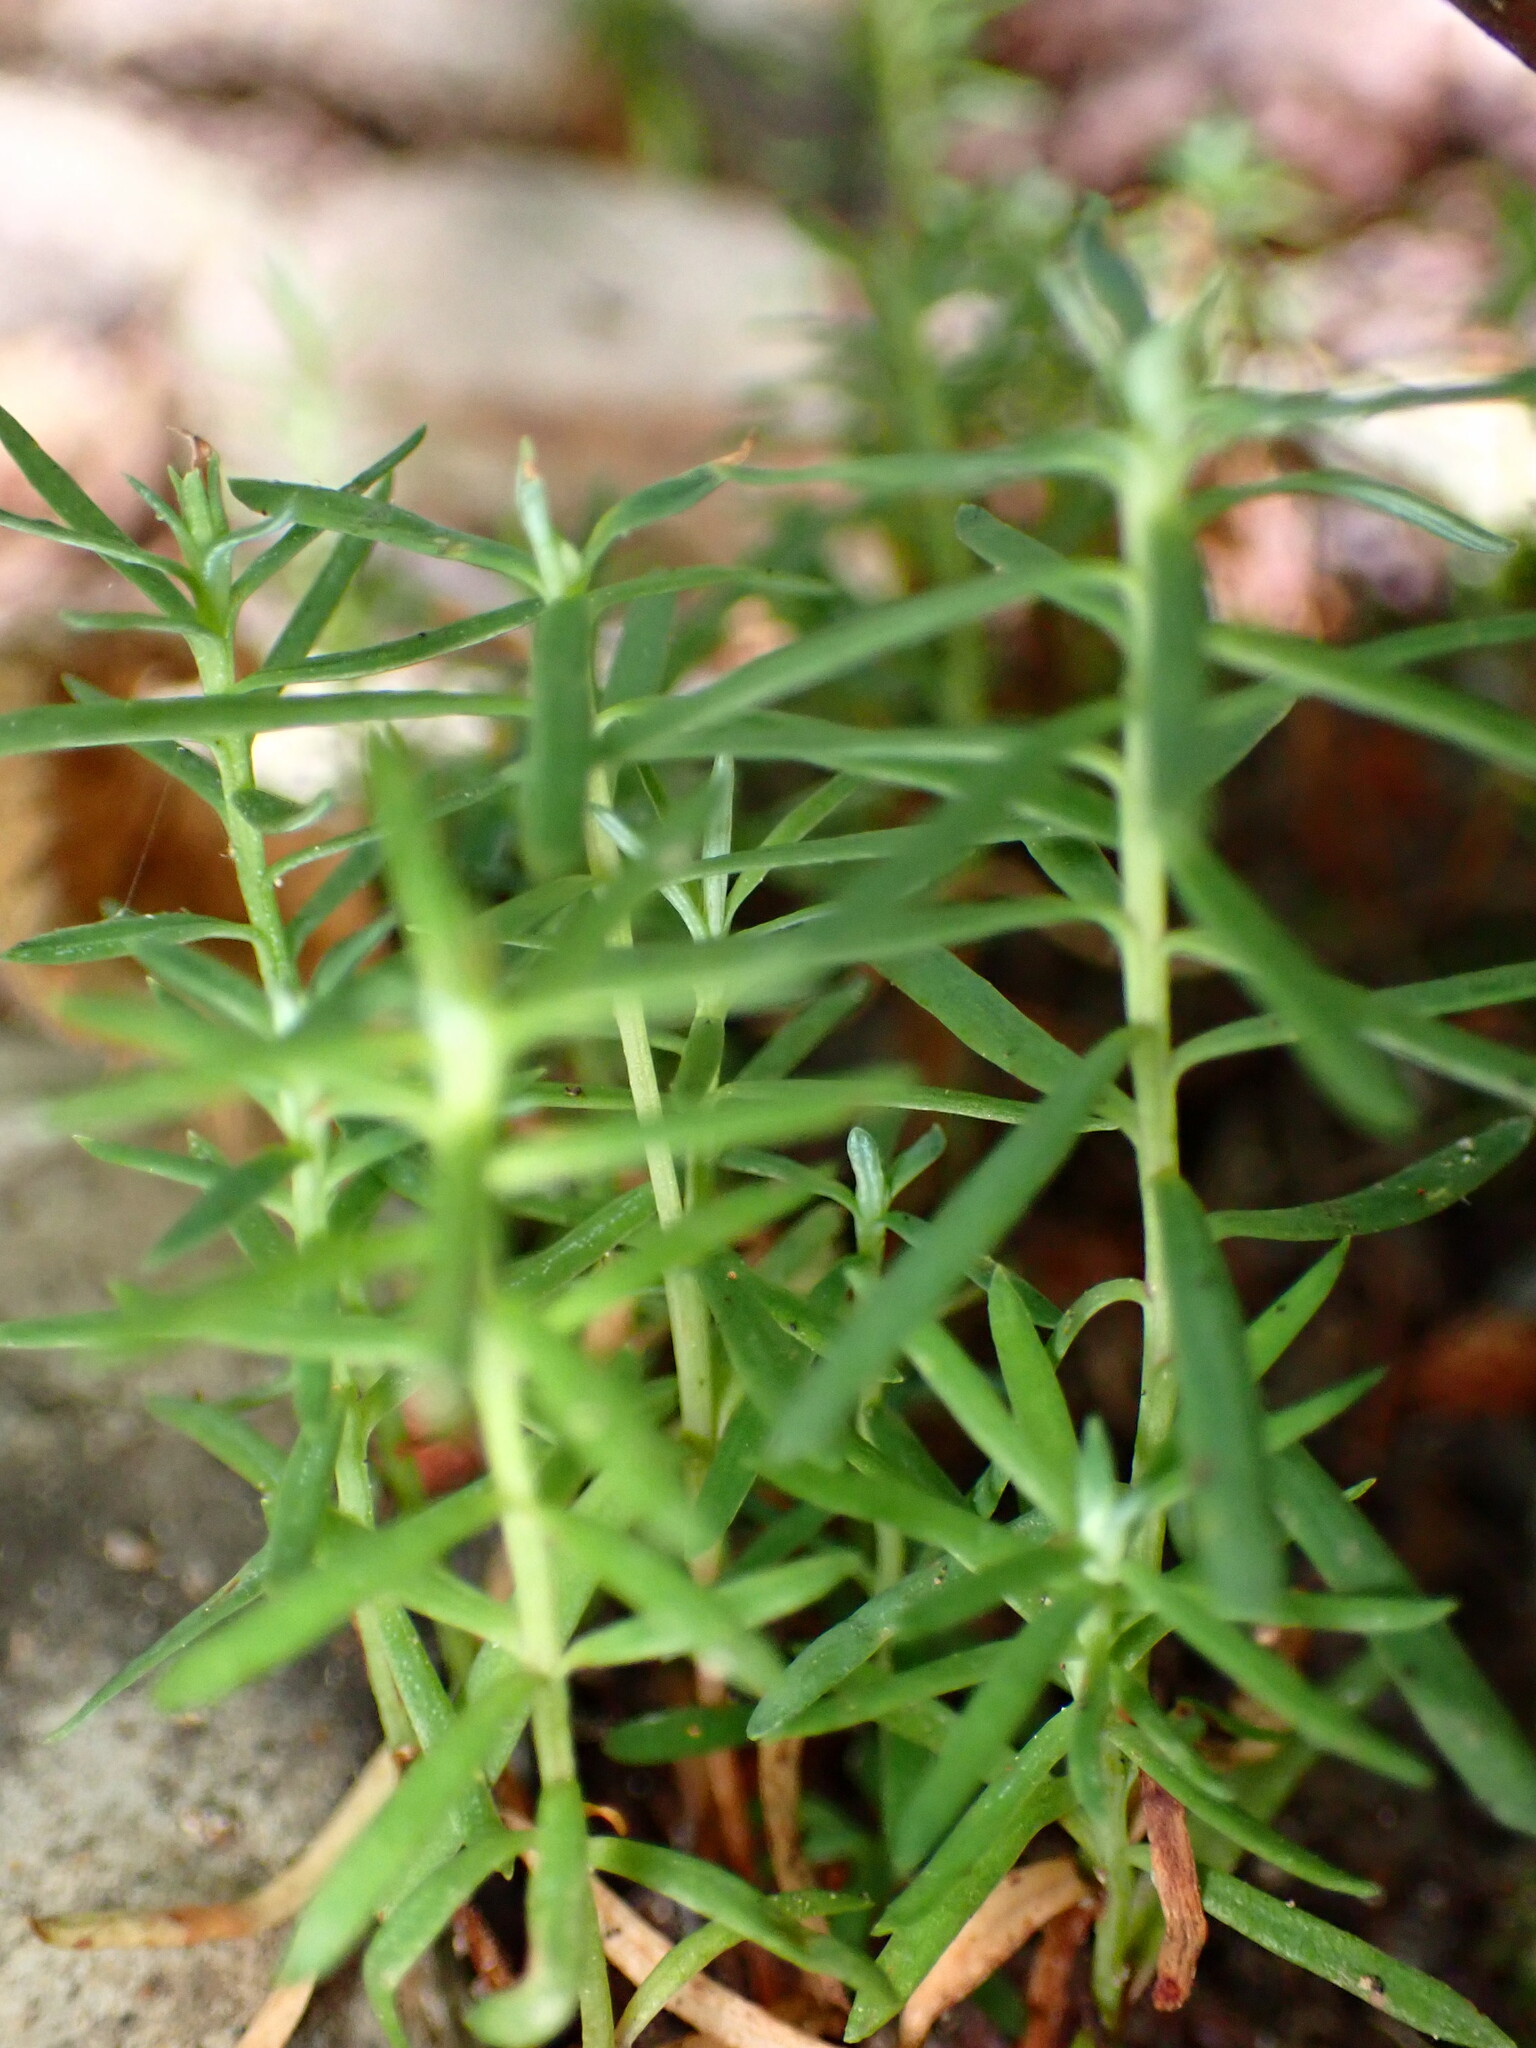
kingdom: Plantae
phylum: Tracheophyta
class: Pinopsida
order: Pinales
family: Cupressaceae
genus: Sequoia
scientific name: Sequoia sempervirens
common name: Coast redwood
